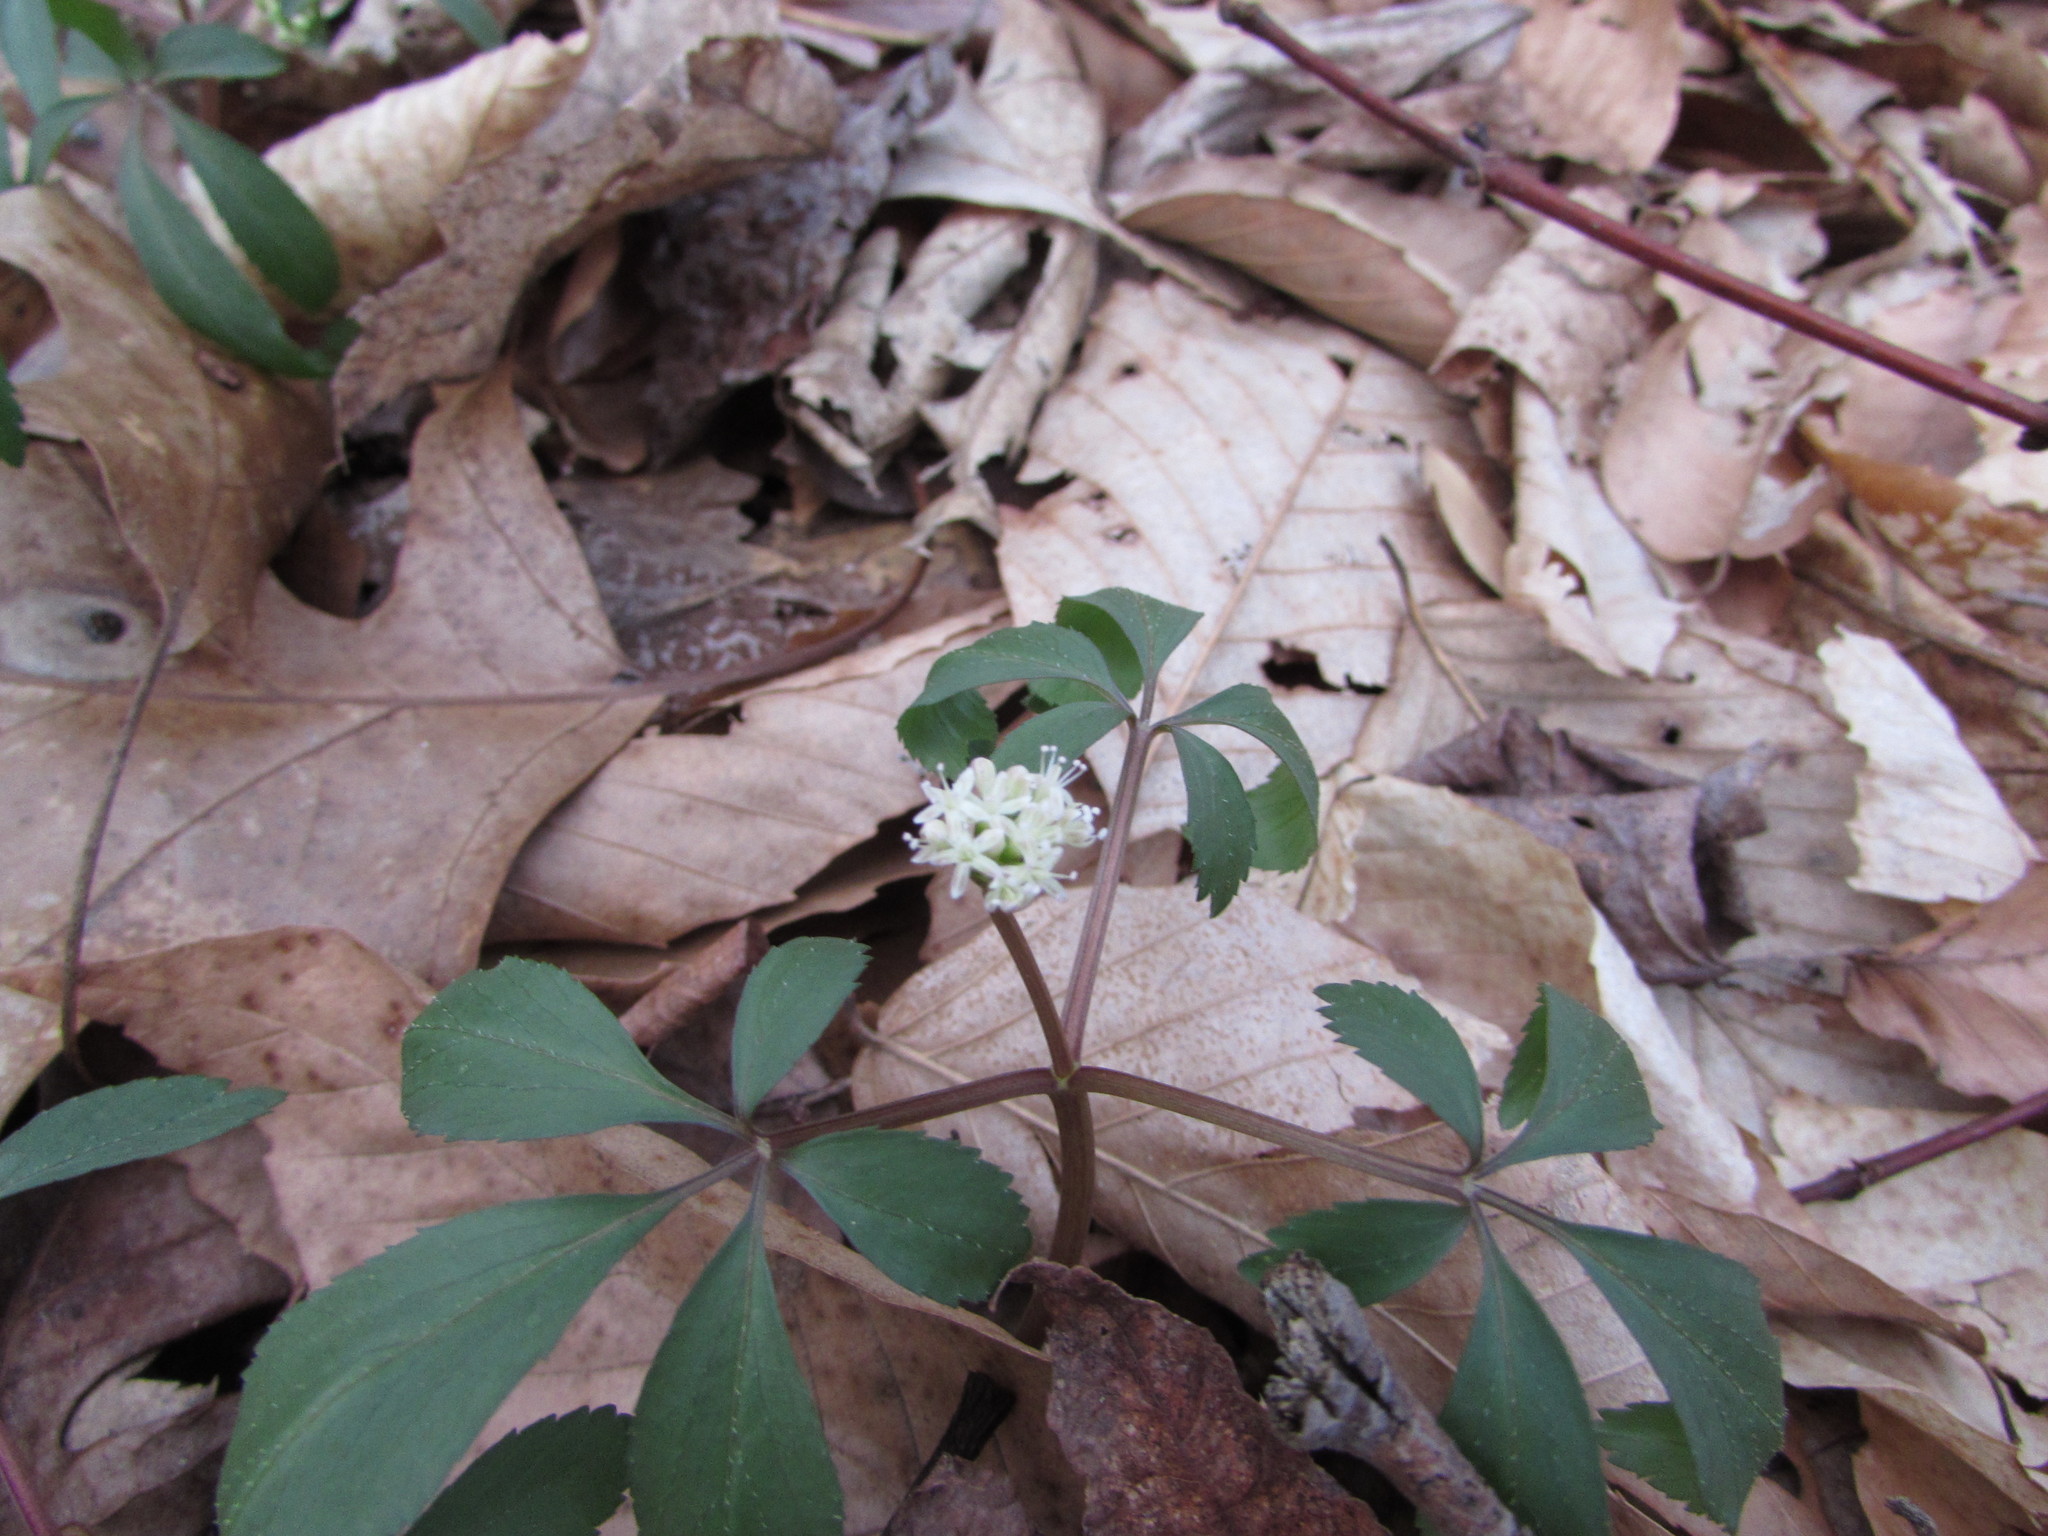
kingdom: Plantae
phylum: Tracheophyta
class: Magnoliopsida
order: Apiales
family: Araliaceae
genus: Panax
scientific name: Panax trifolius
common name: Dwarf ginseng
